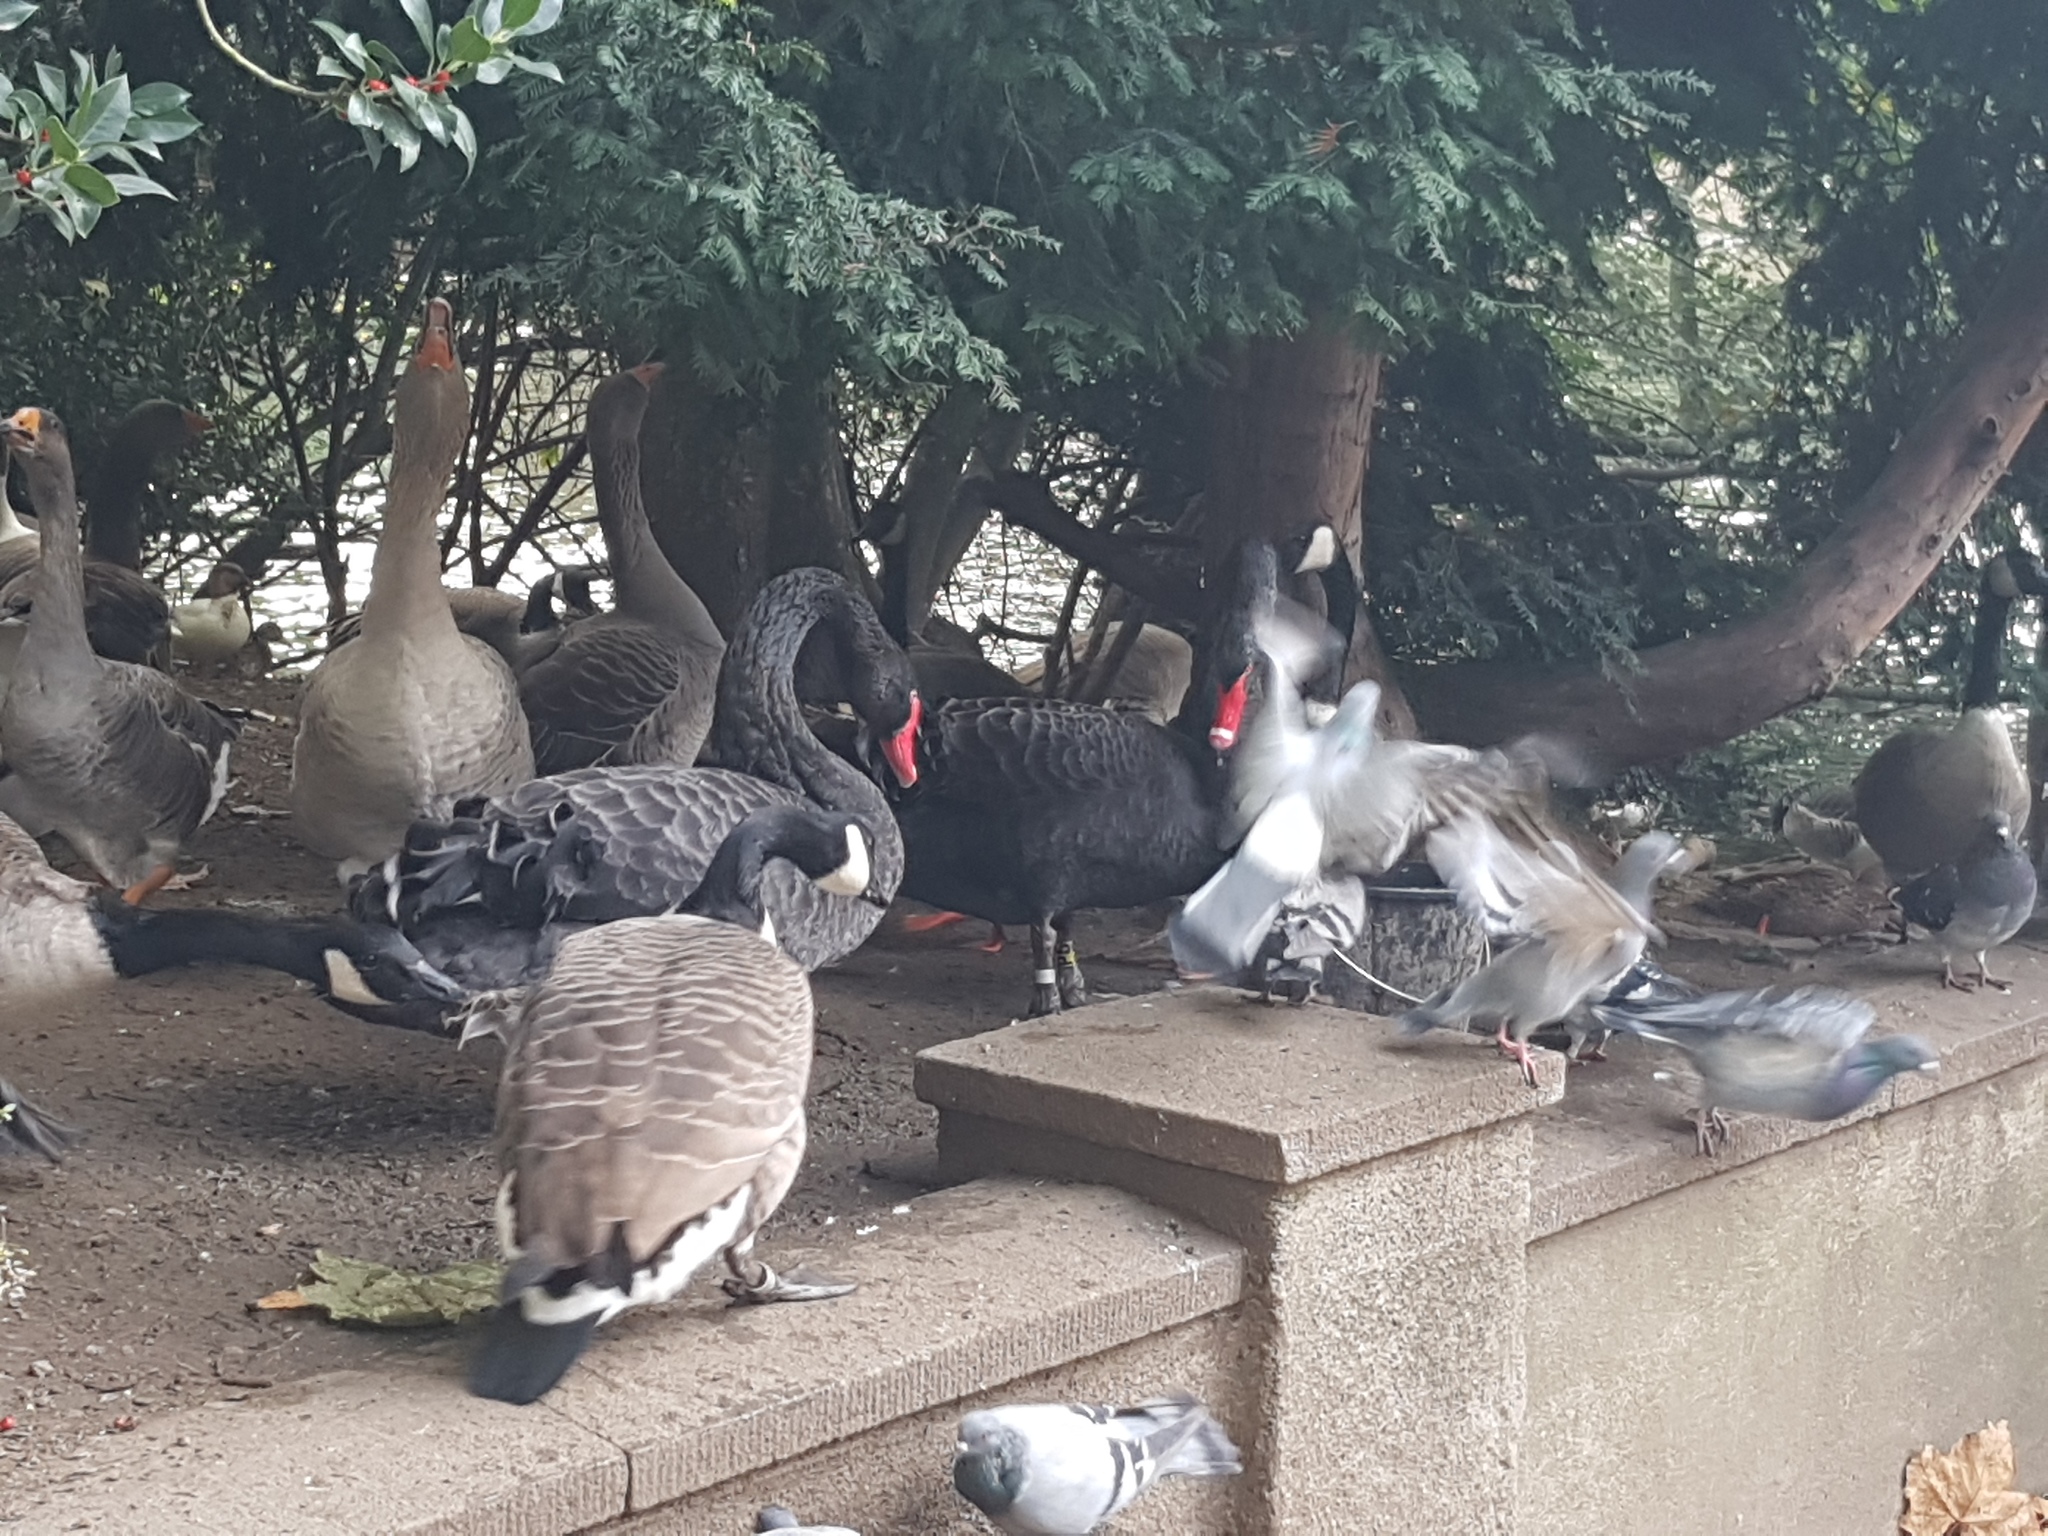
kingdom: Animalia
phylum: Chordata
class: Aves
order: Anseriformes
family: Anatidae
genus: Cygnus
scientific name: Cygnus atratus
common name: Black swan
